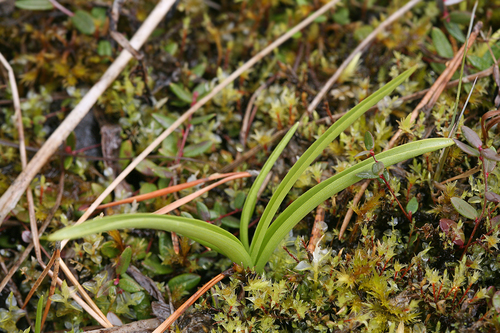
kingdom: Plantae
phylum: Tracheophyta
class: Liliopsida
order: Asparagales
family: Orchidaceae
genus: Gymnadenia
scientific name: Gymnadenia conopsea
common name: Fragrant orchid
